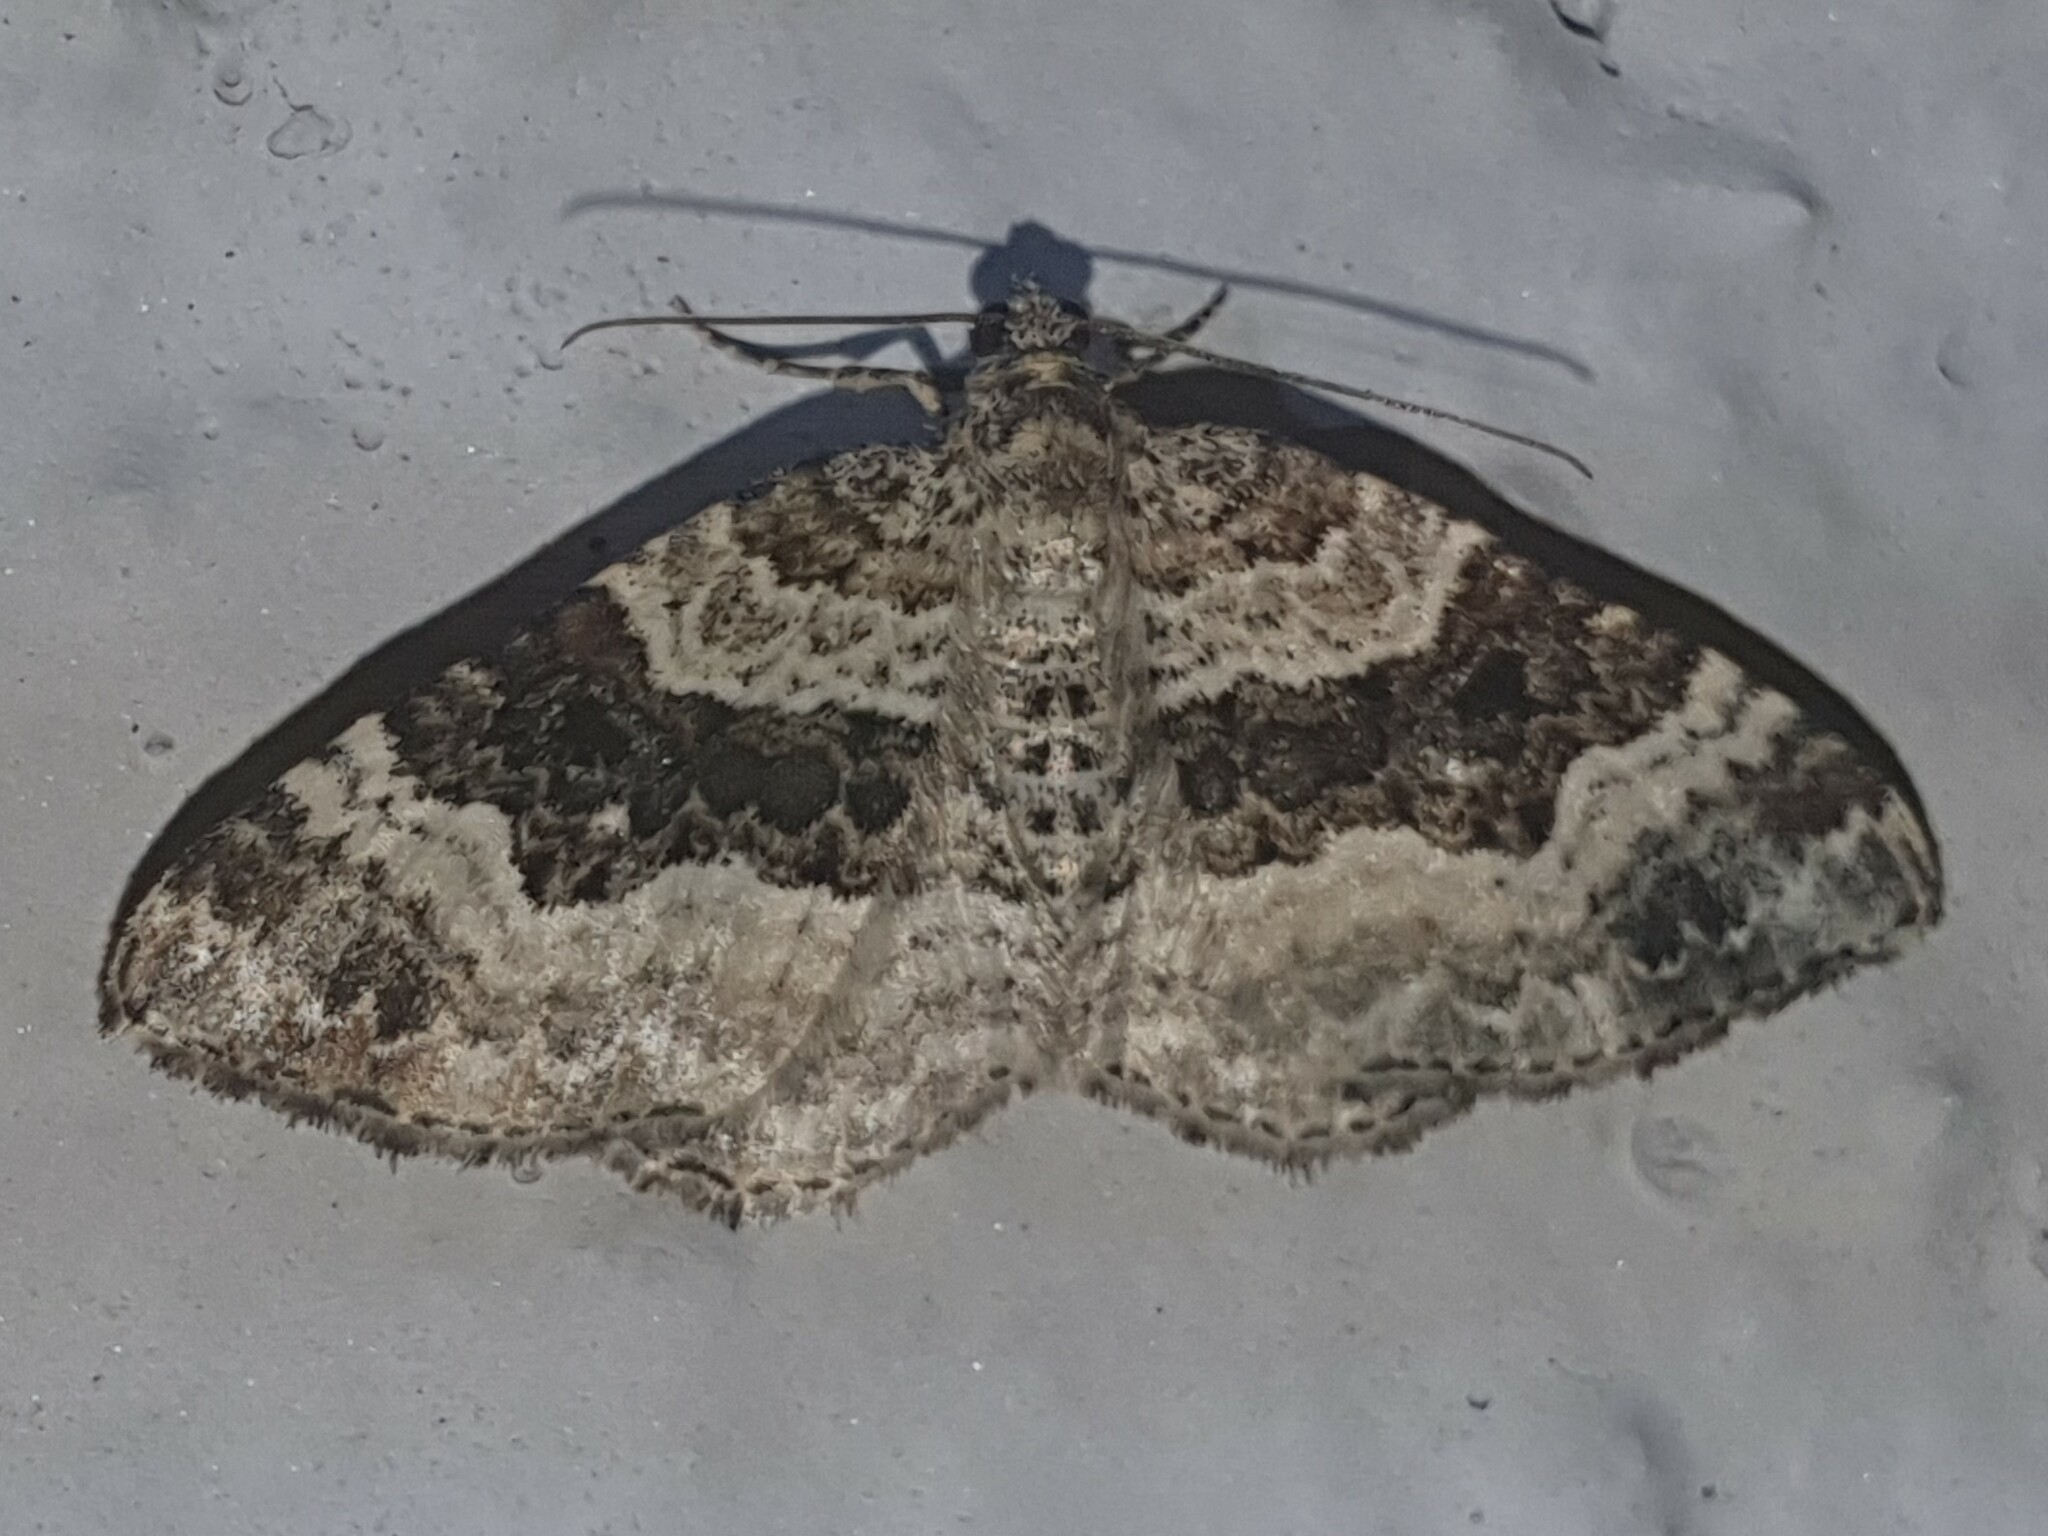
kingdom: Animalia
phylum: Arthropoda
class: Insecta
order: Lepidoptera
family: Geometridae
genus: Epirrhoe
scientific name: Epirrhoe alternata
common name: Common carpet
